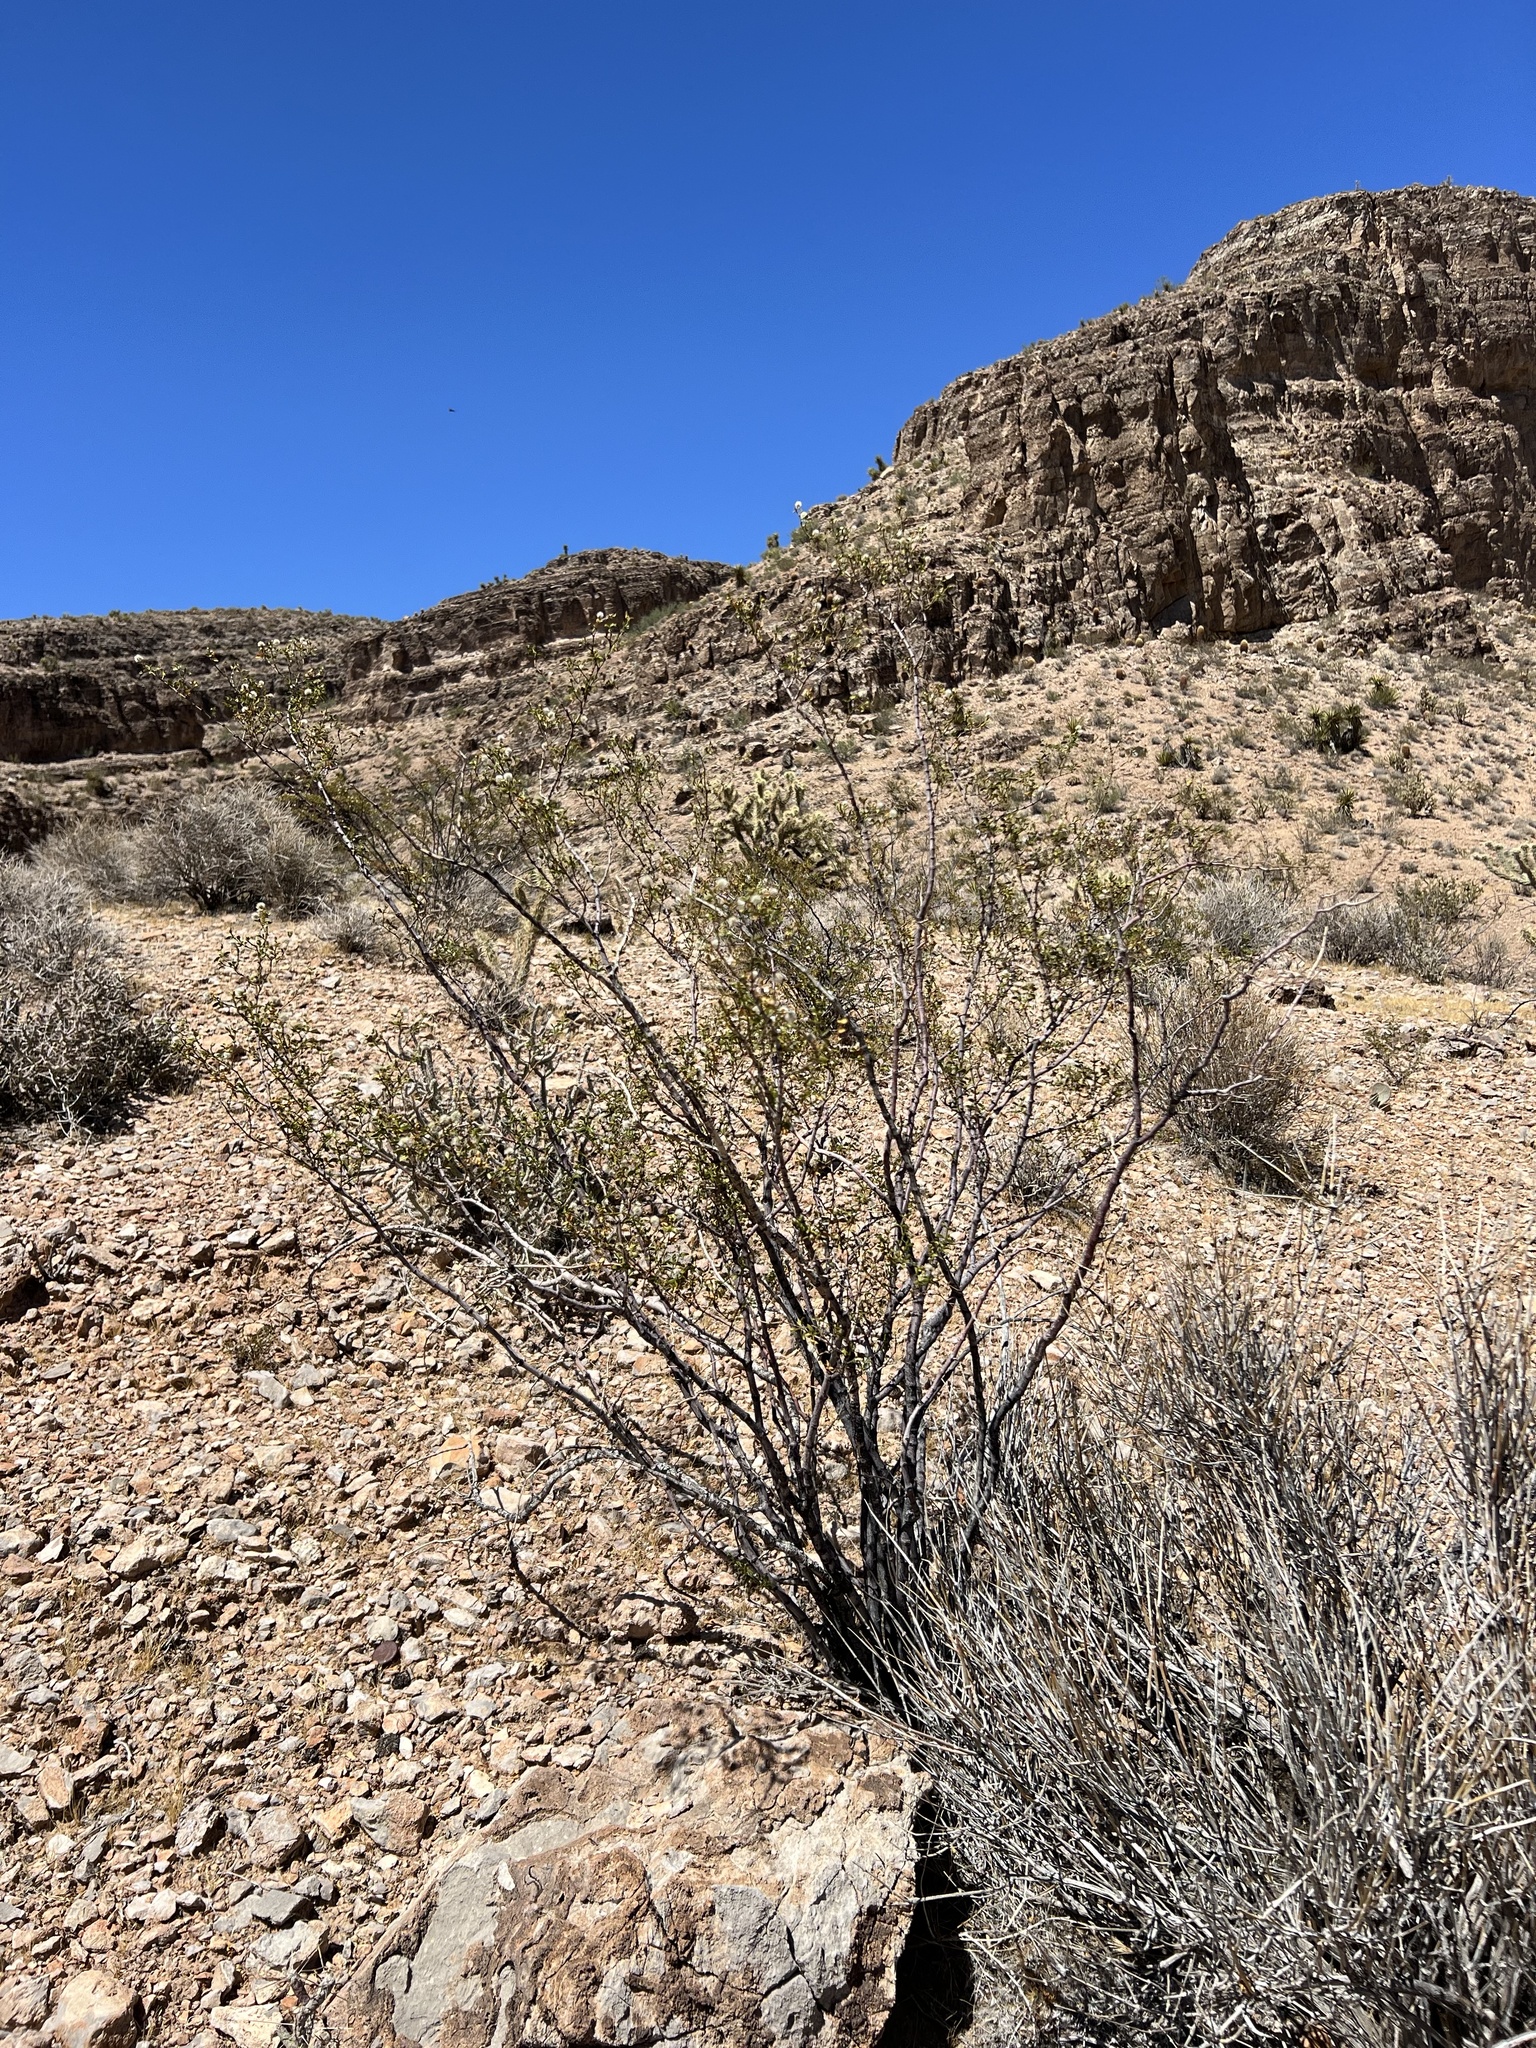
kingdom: Plantae
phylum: Tracheophyta
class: Magnoliopsida
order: Zygophyllales
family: Zygophyllaceae
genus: Larrea
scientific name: Larrea tridentata
